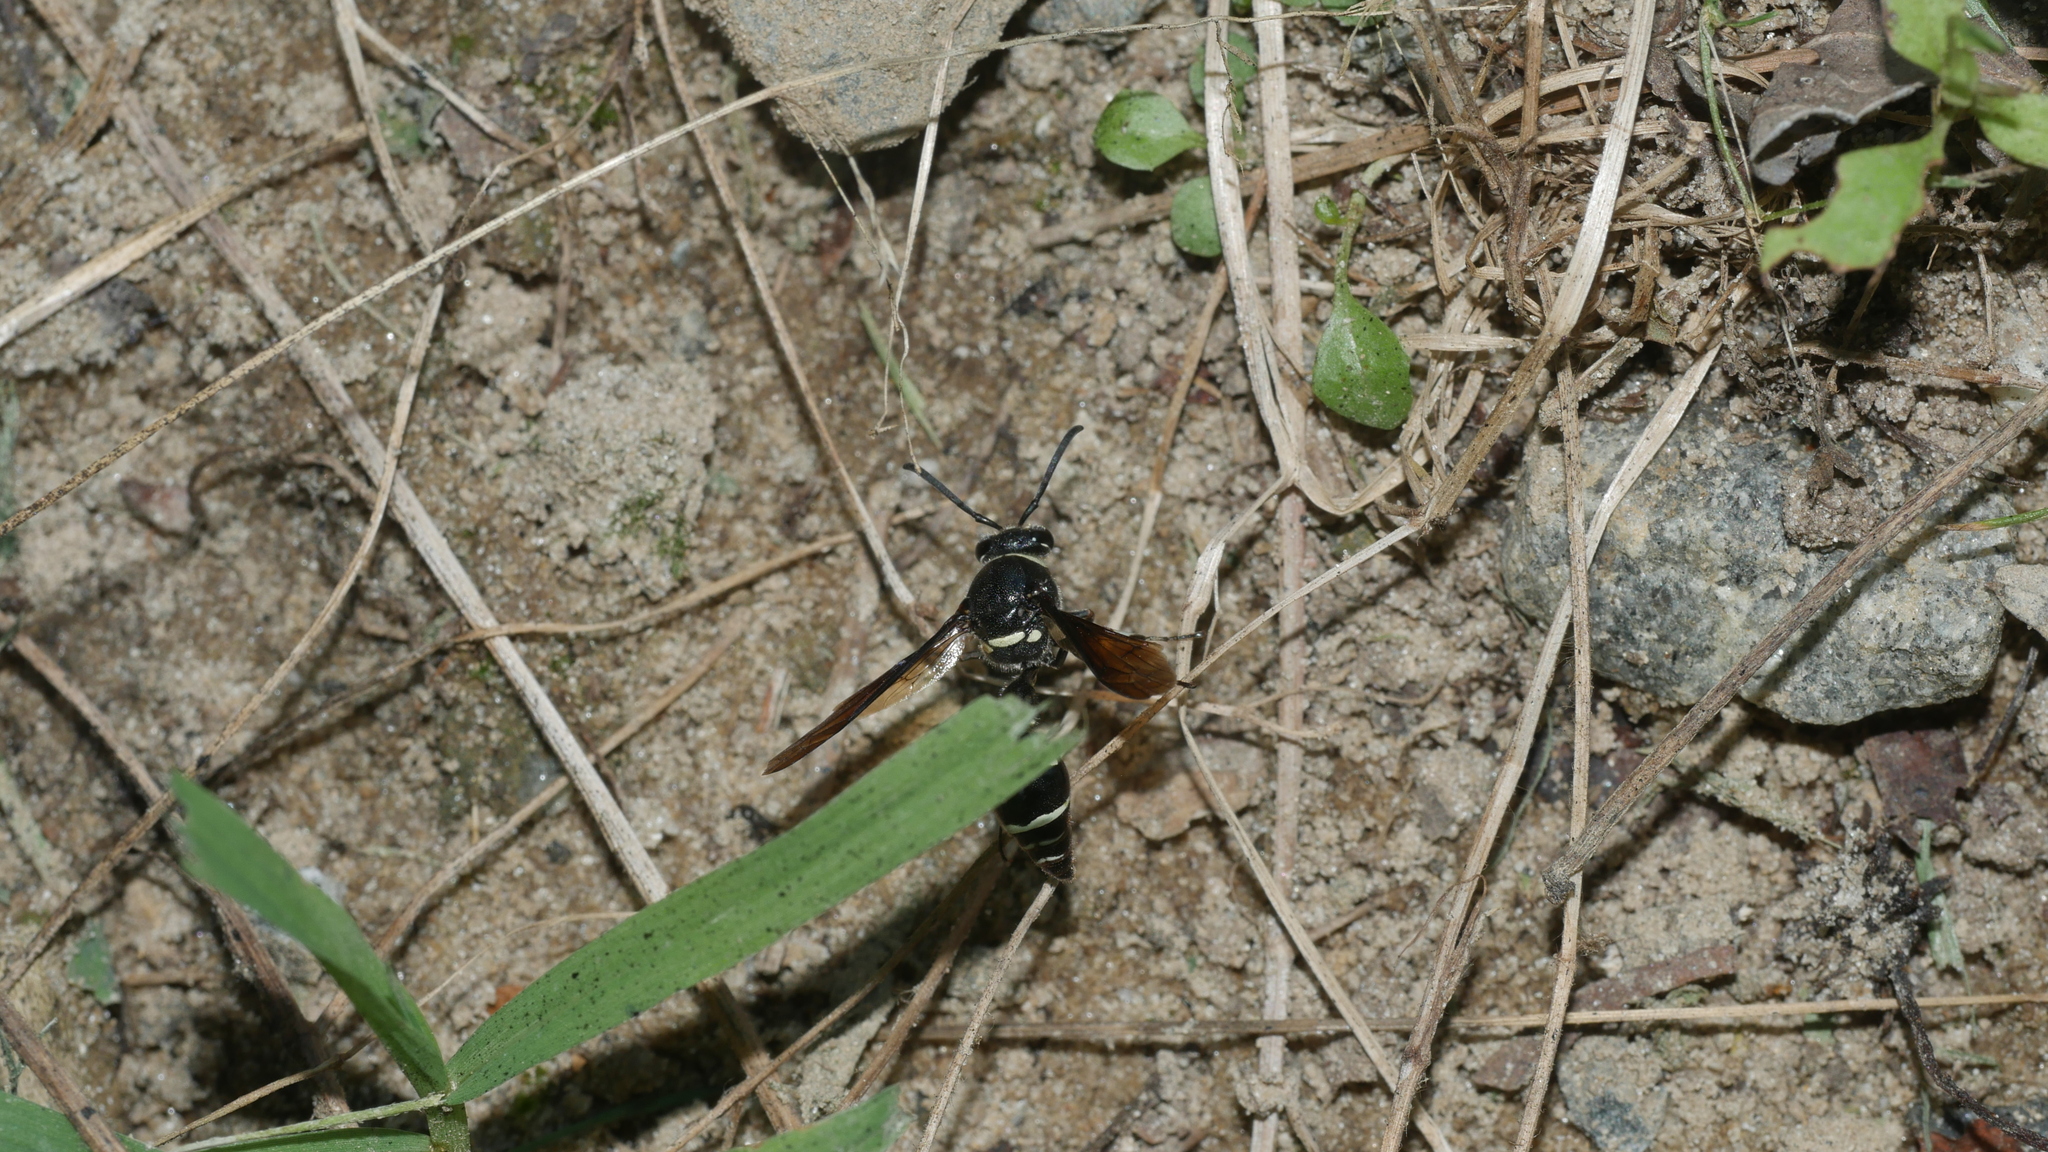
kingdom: Animalia
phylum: Arthropoda
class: Insecta
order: Hymenoptera
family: Vespidae
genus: Eumenes
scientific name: Eumenes fraternus
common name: Fraternal potter wasp
